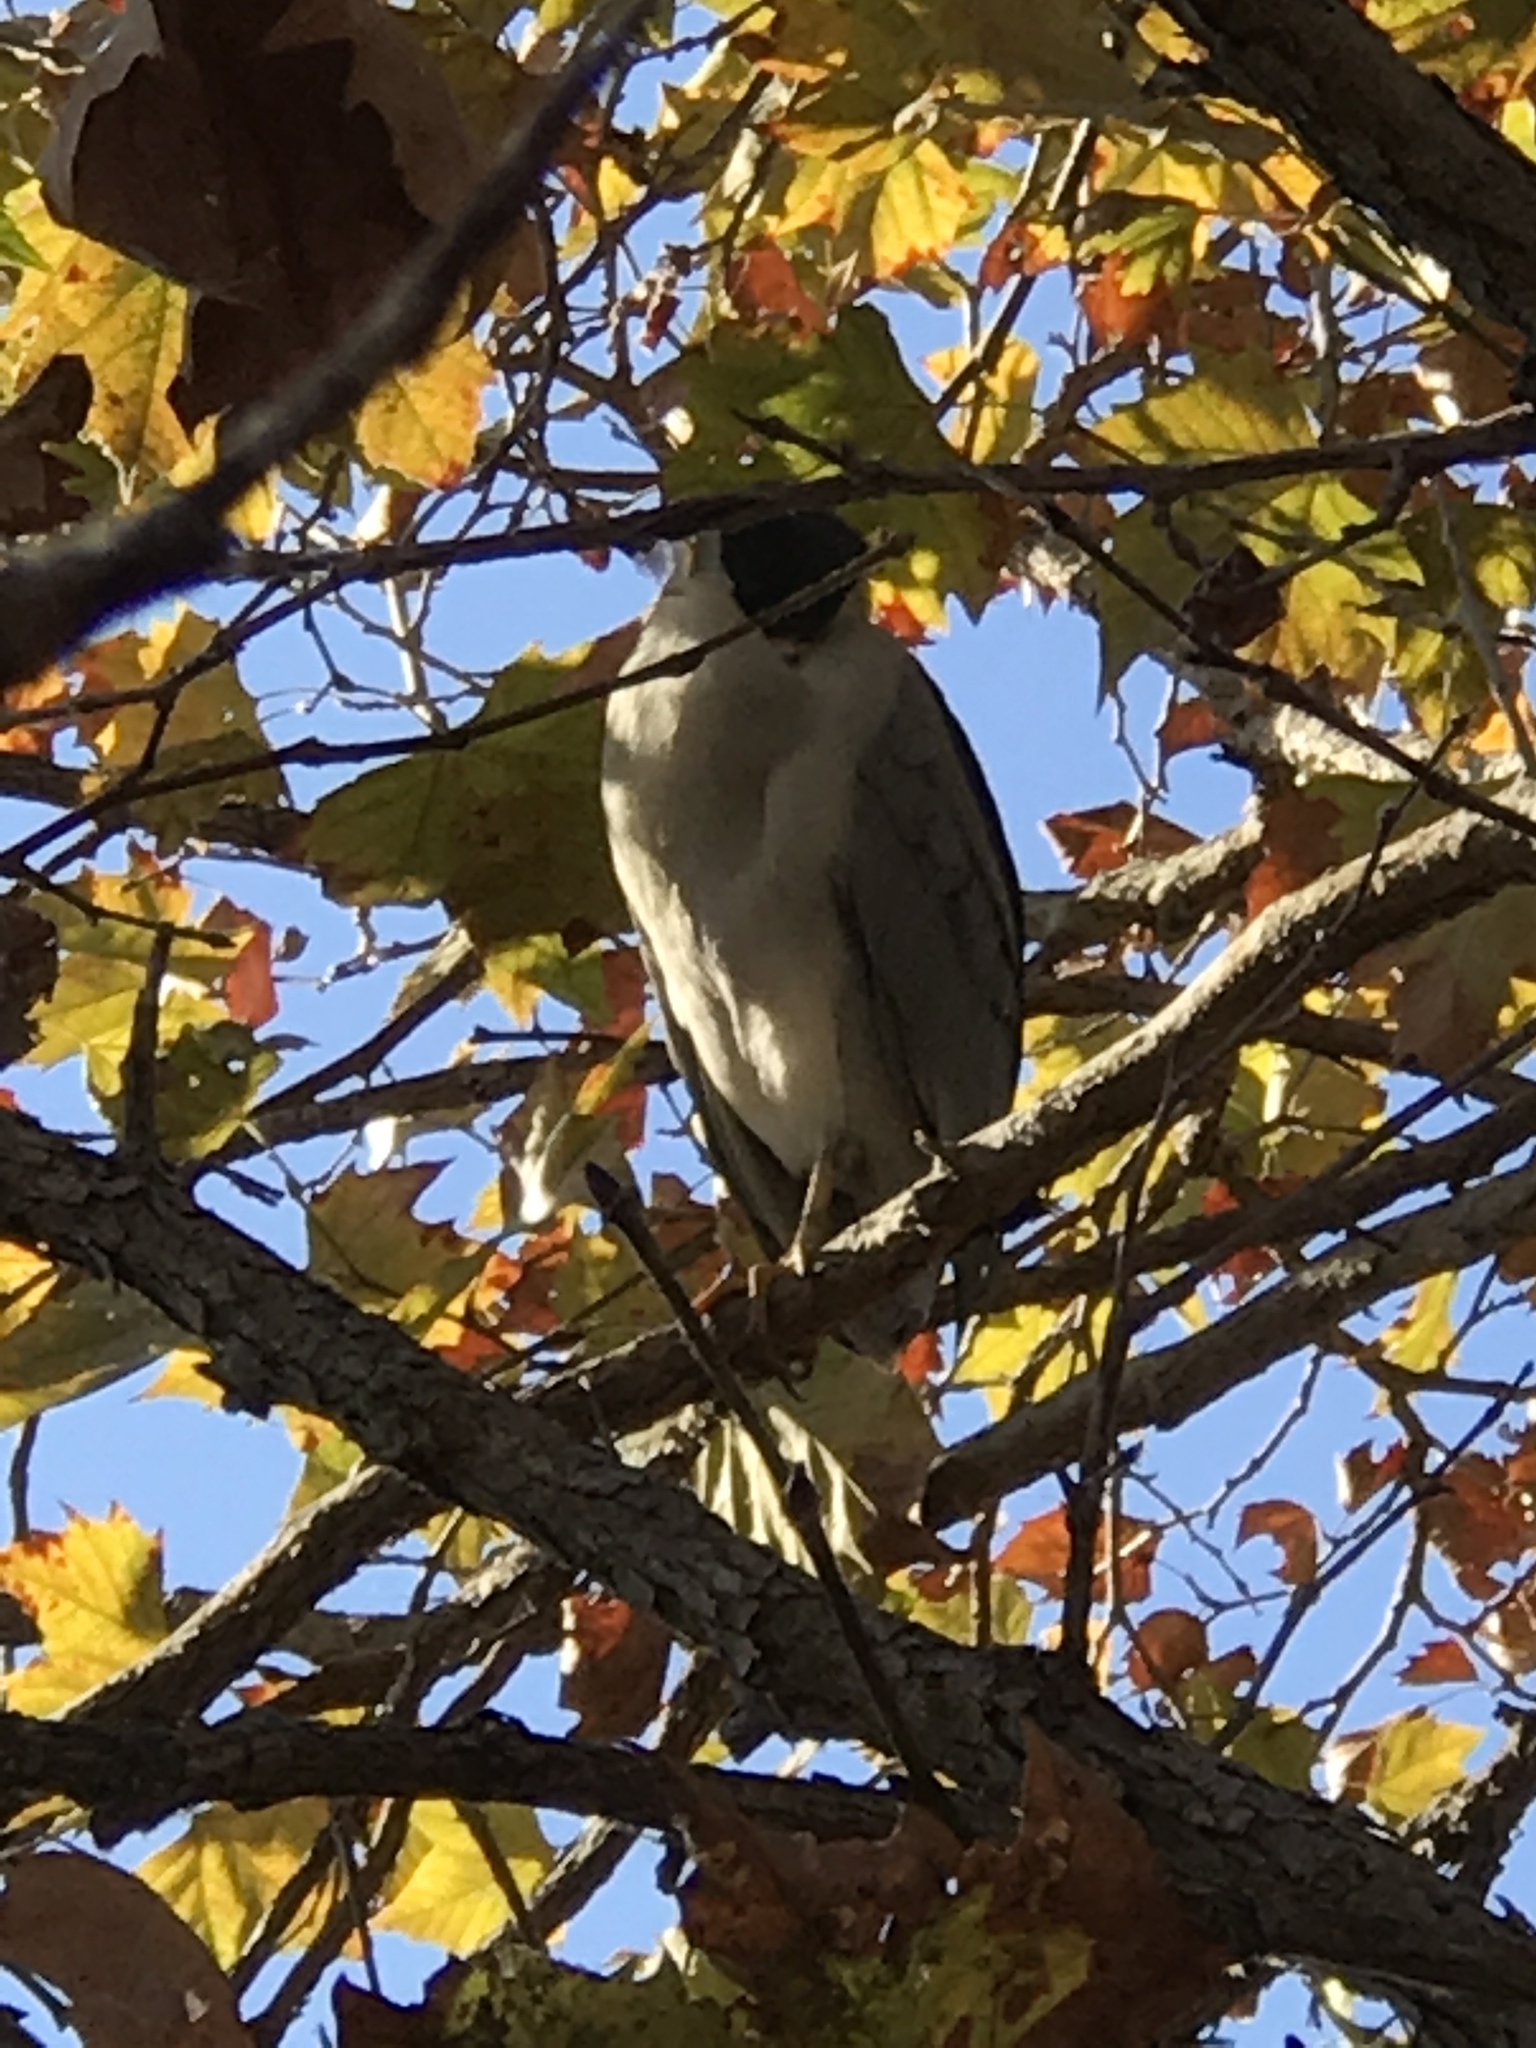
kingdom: Animalia
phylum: Chordata
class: Aves
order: Pelecaniformes
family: Ardeidae
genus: Nycticorax
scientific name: Nycticorax nycticorax
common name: Black-crowned night heron
